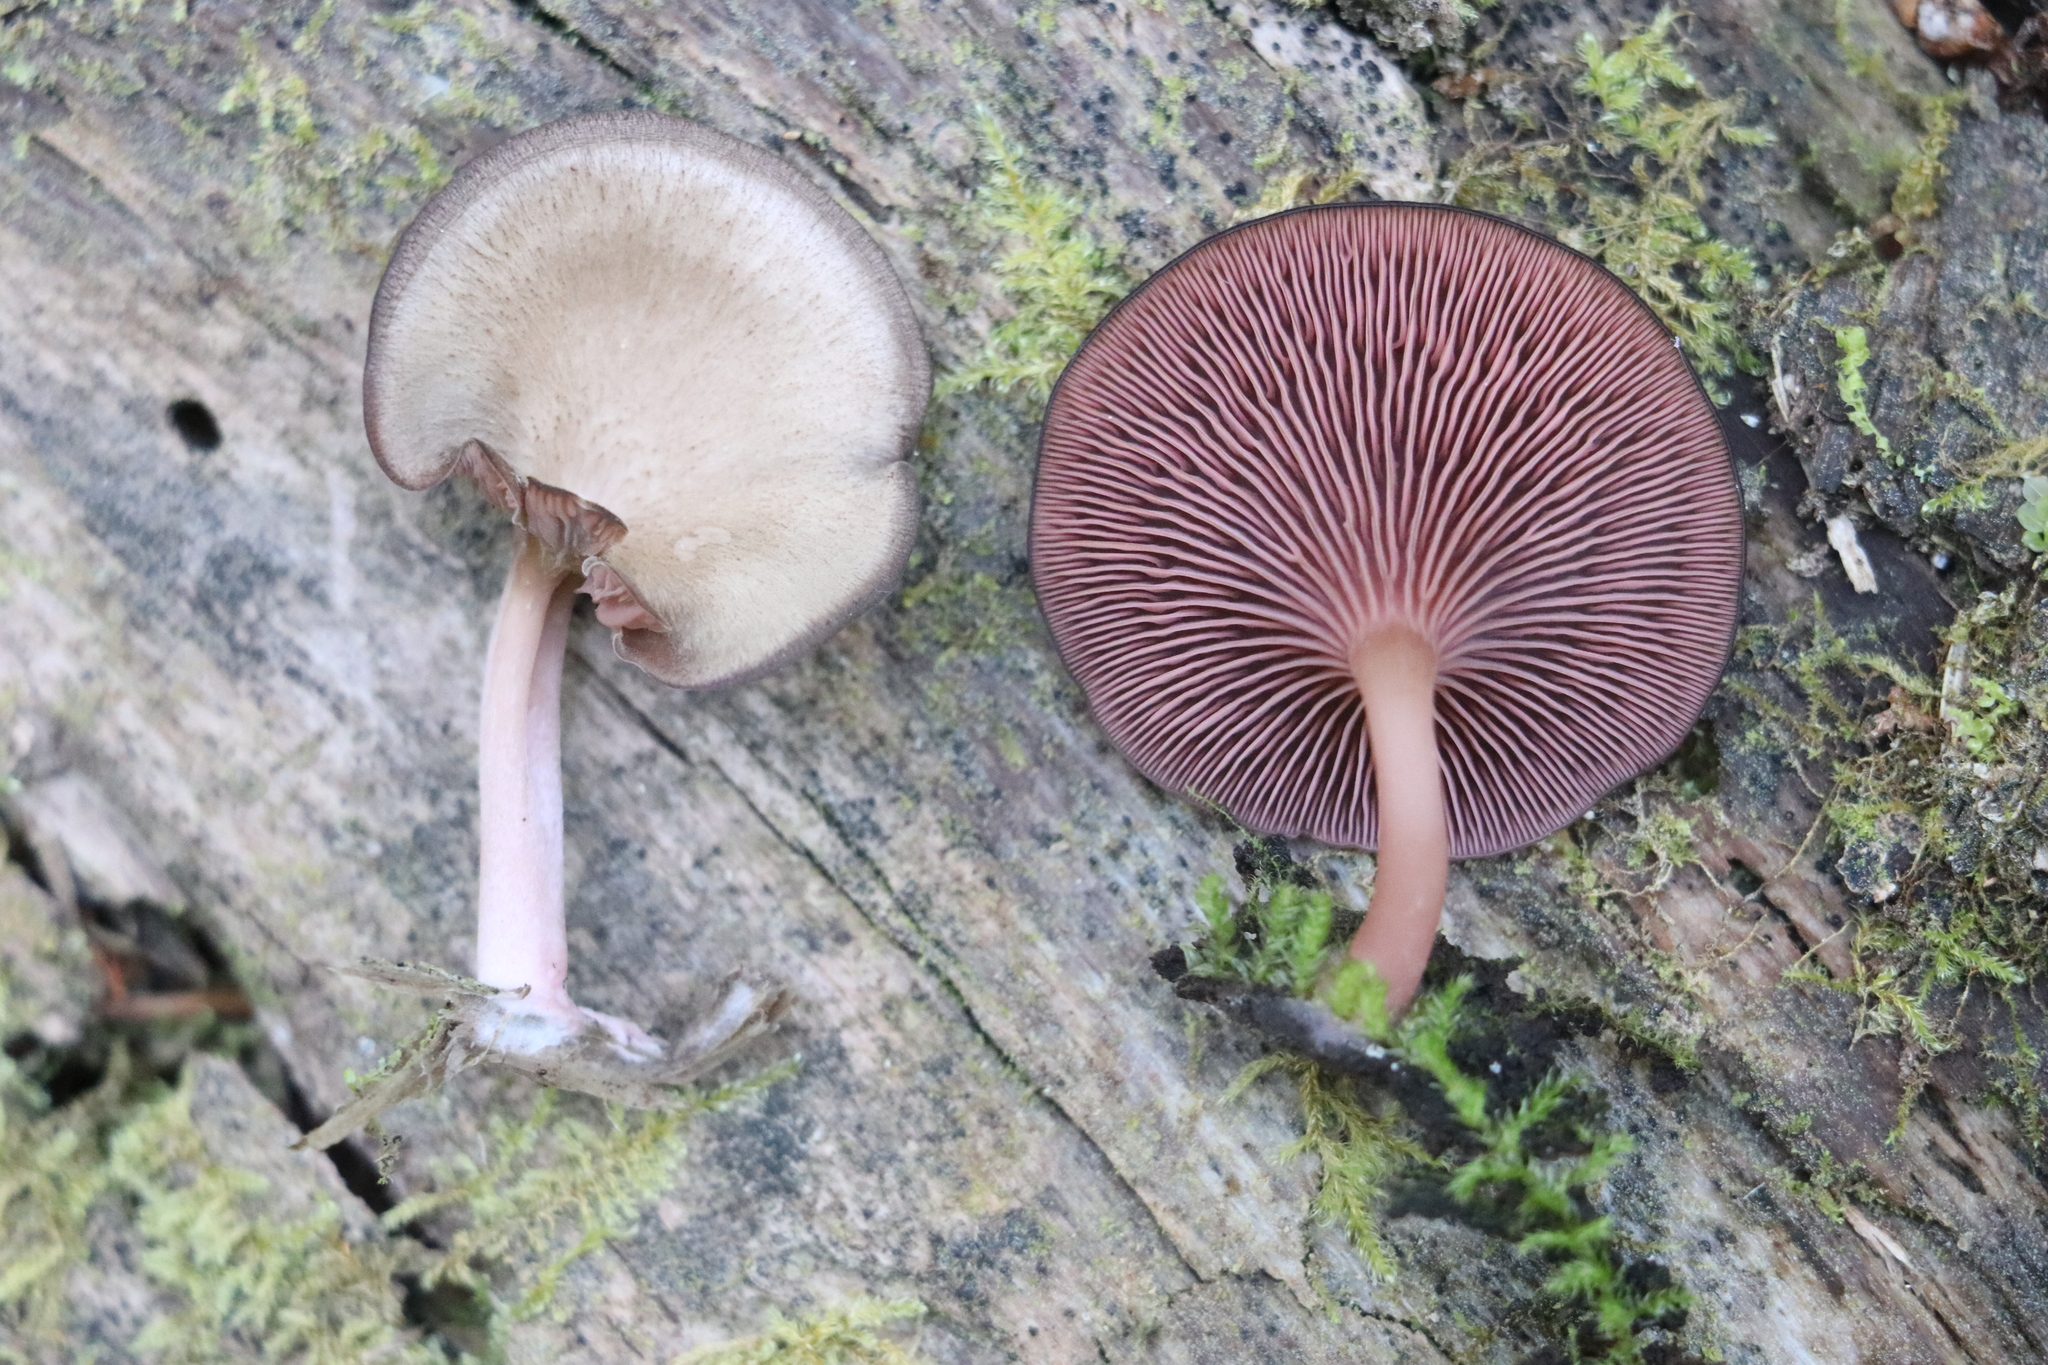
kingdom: Fungi
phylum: Basidiomycota
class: Agaricomycetes
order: Agaricales
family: Hygrophoraceae
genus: Arrhenia
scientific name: Arrhenia discorosea
